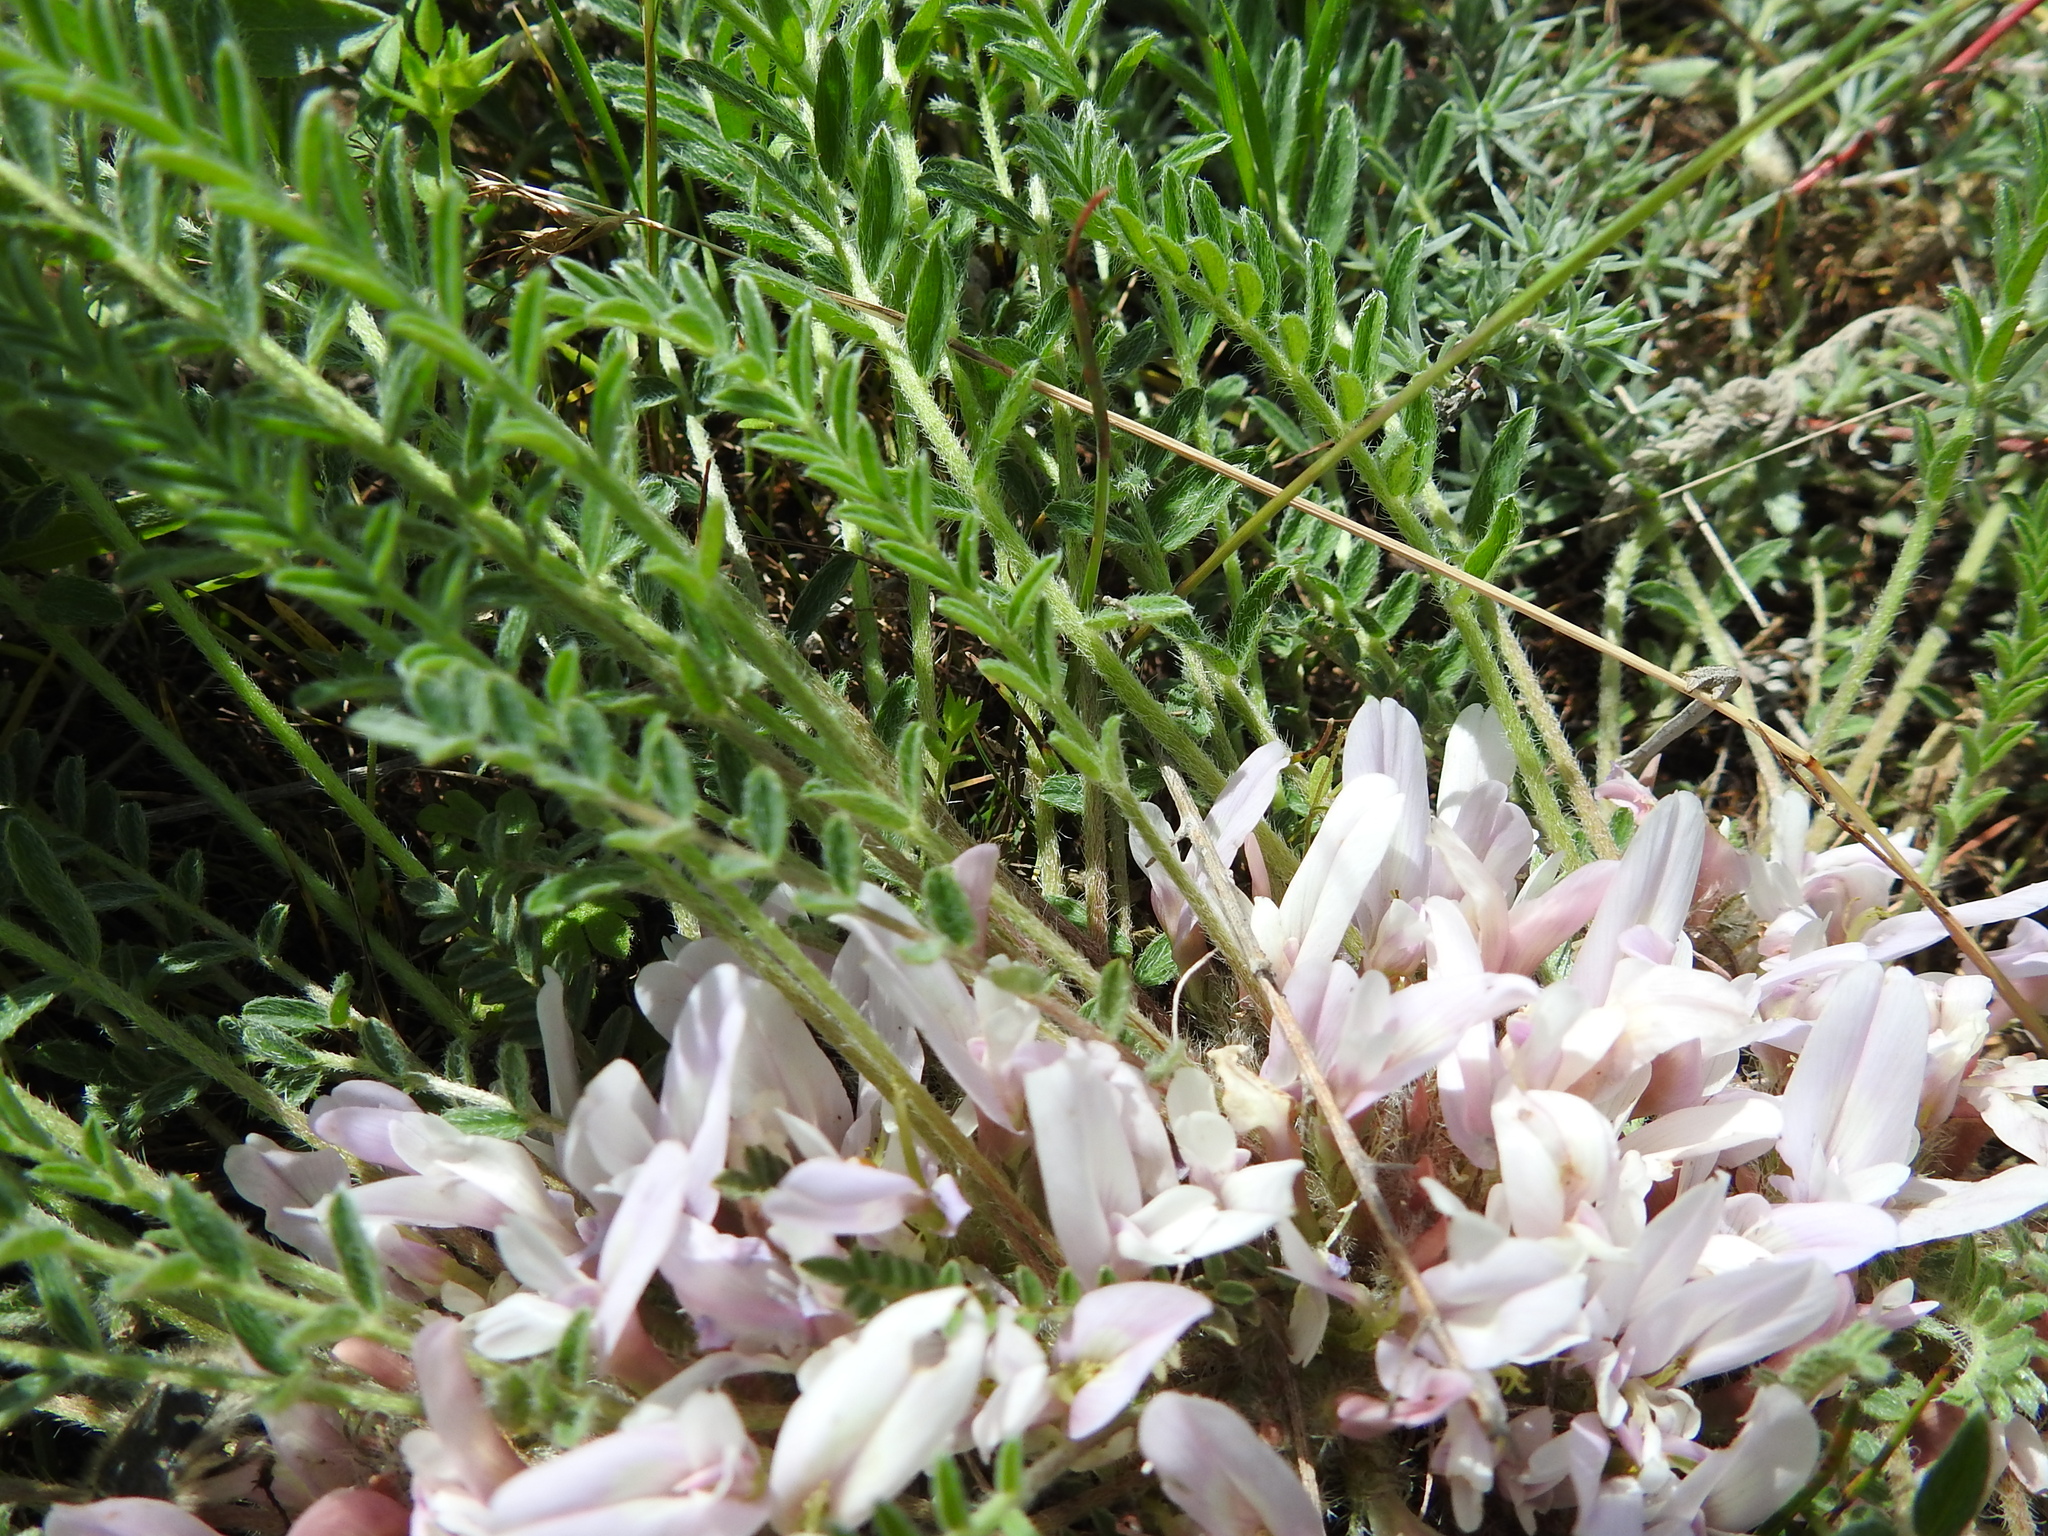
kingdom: Plantae
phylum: Tracheophyta
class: Magnoliopsida
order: Fabales
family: Fabaceae
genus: Astragalus
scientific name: Astragalus dolichophyllus
